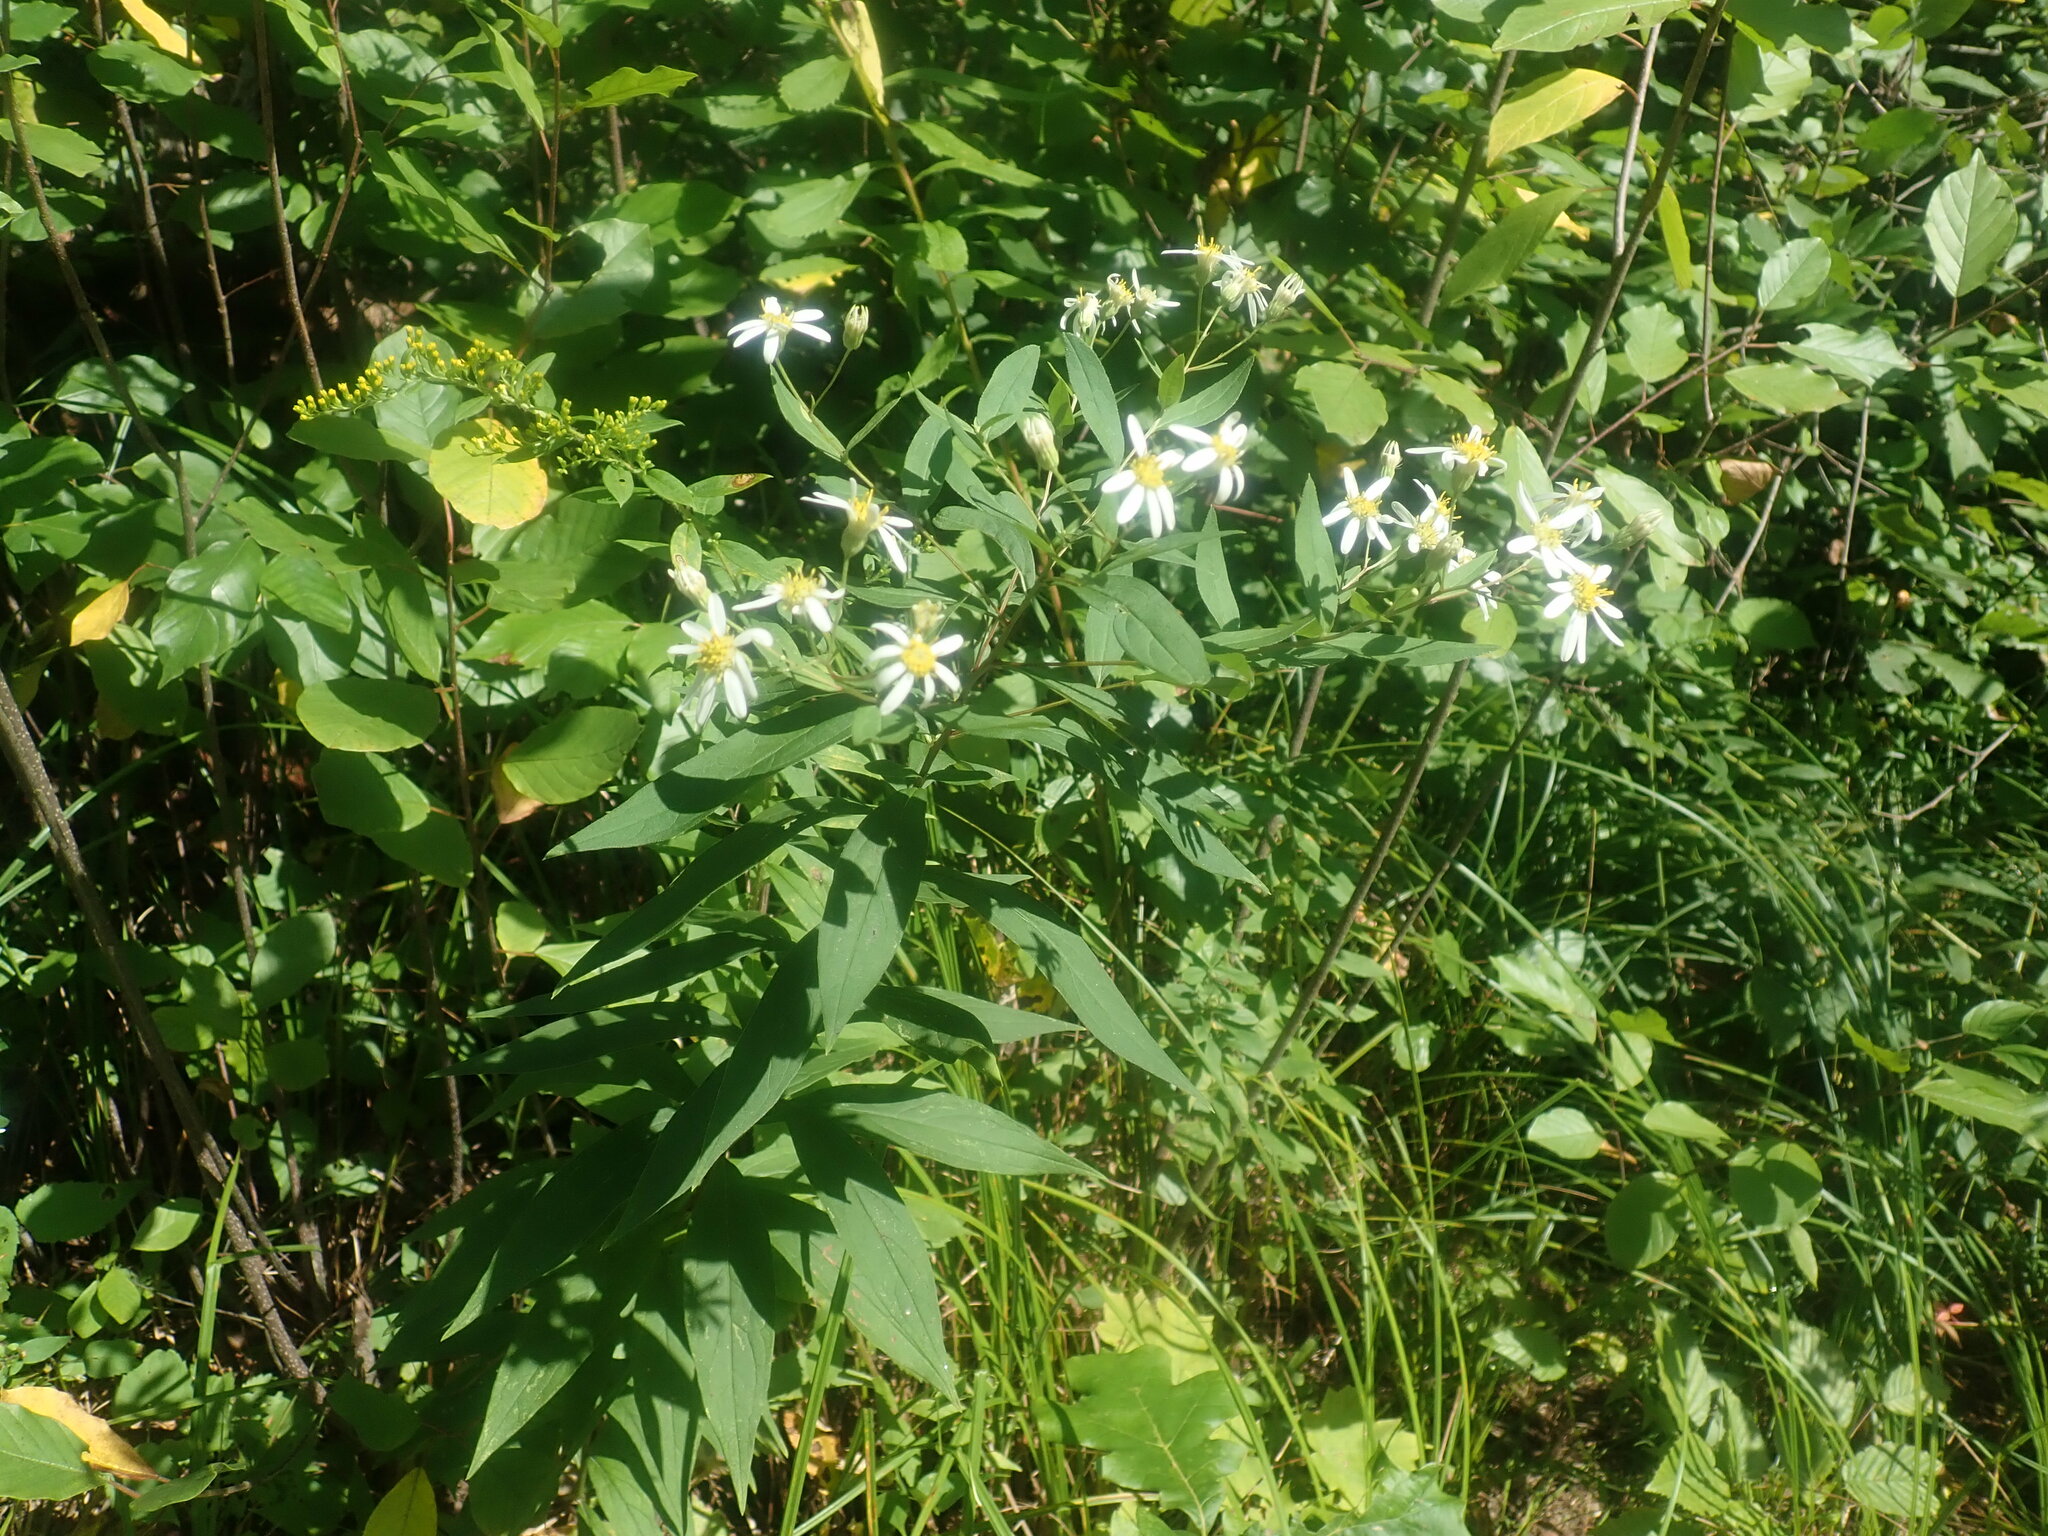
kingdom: Plantae
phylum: Tracheophyta
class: Magnoliopsida
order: Asterales
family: Asteraceae
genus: Doellingeria
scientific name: Doellingeria umbellata
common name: Flat-top white aster
